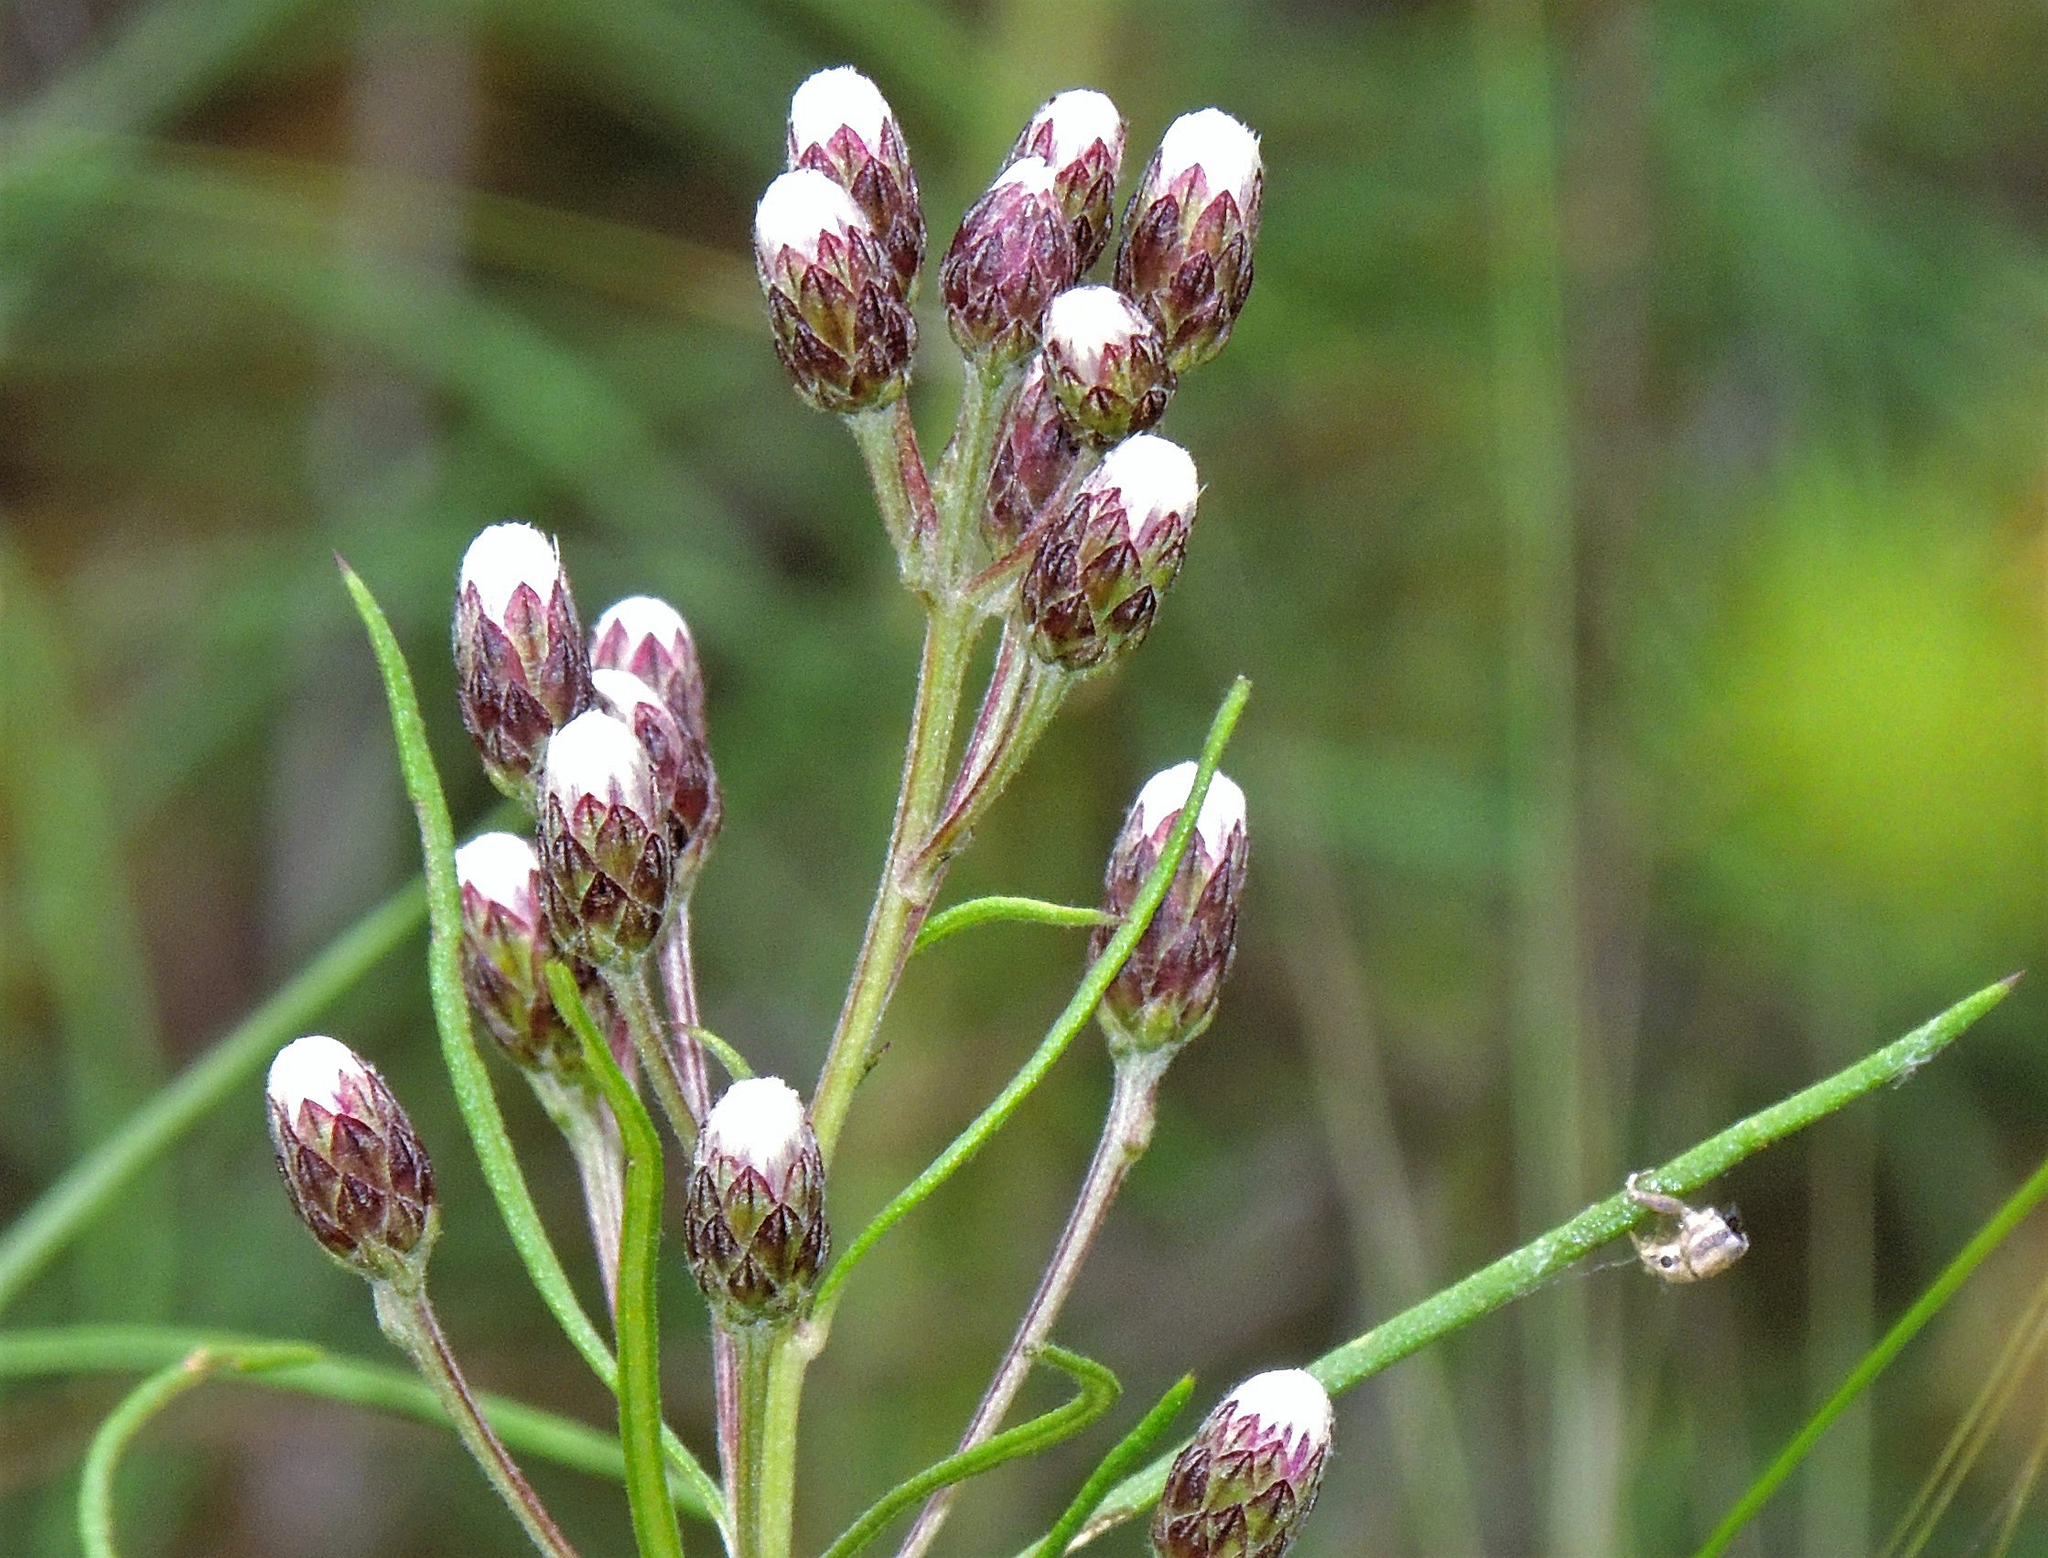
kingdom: Plantae
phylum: Tracheophyta
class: Magnoliopsida
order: Asterales
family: Asteraceae
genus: Vernonanthura
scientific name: Vernonanthura nudiflora
